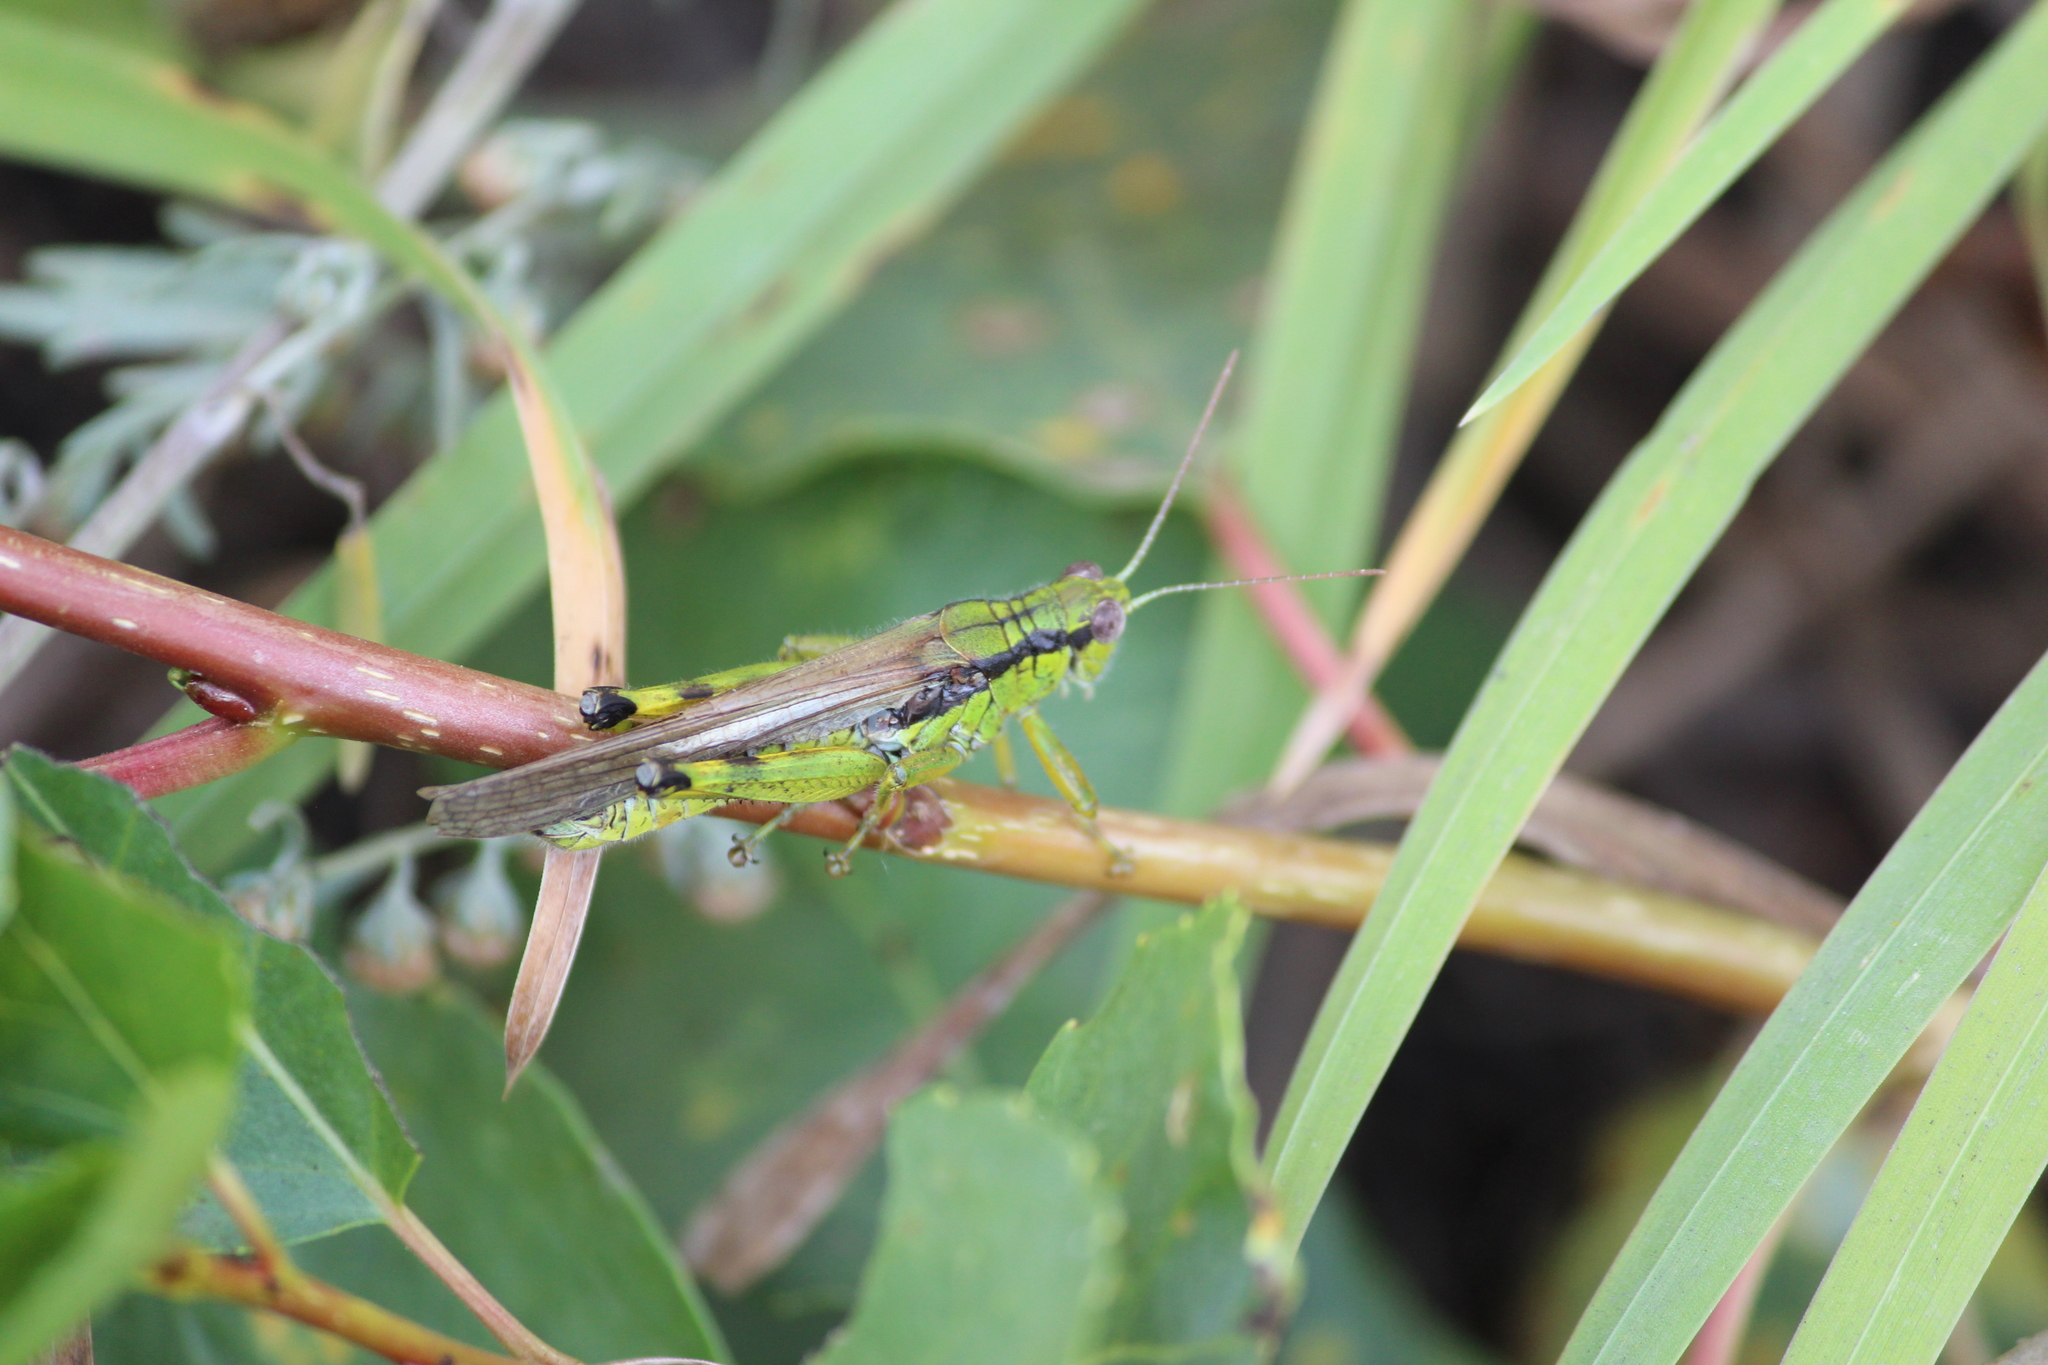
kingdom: Animalia
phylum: Arthropoda
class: Insecta
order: Orthoptera
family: Acrididae
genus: Confusacris
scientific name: Confusacris longipennis
